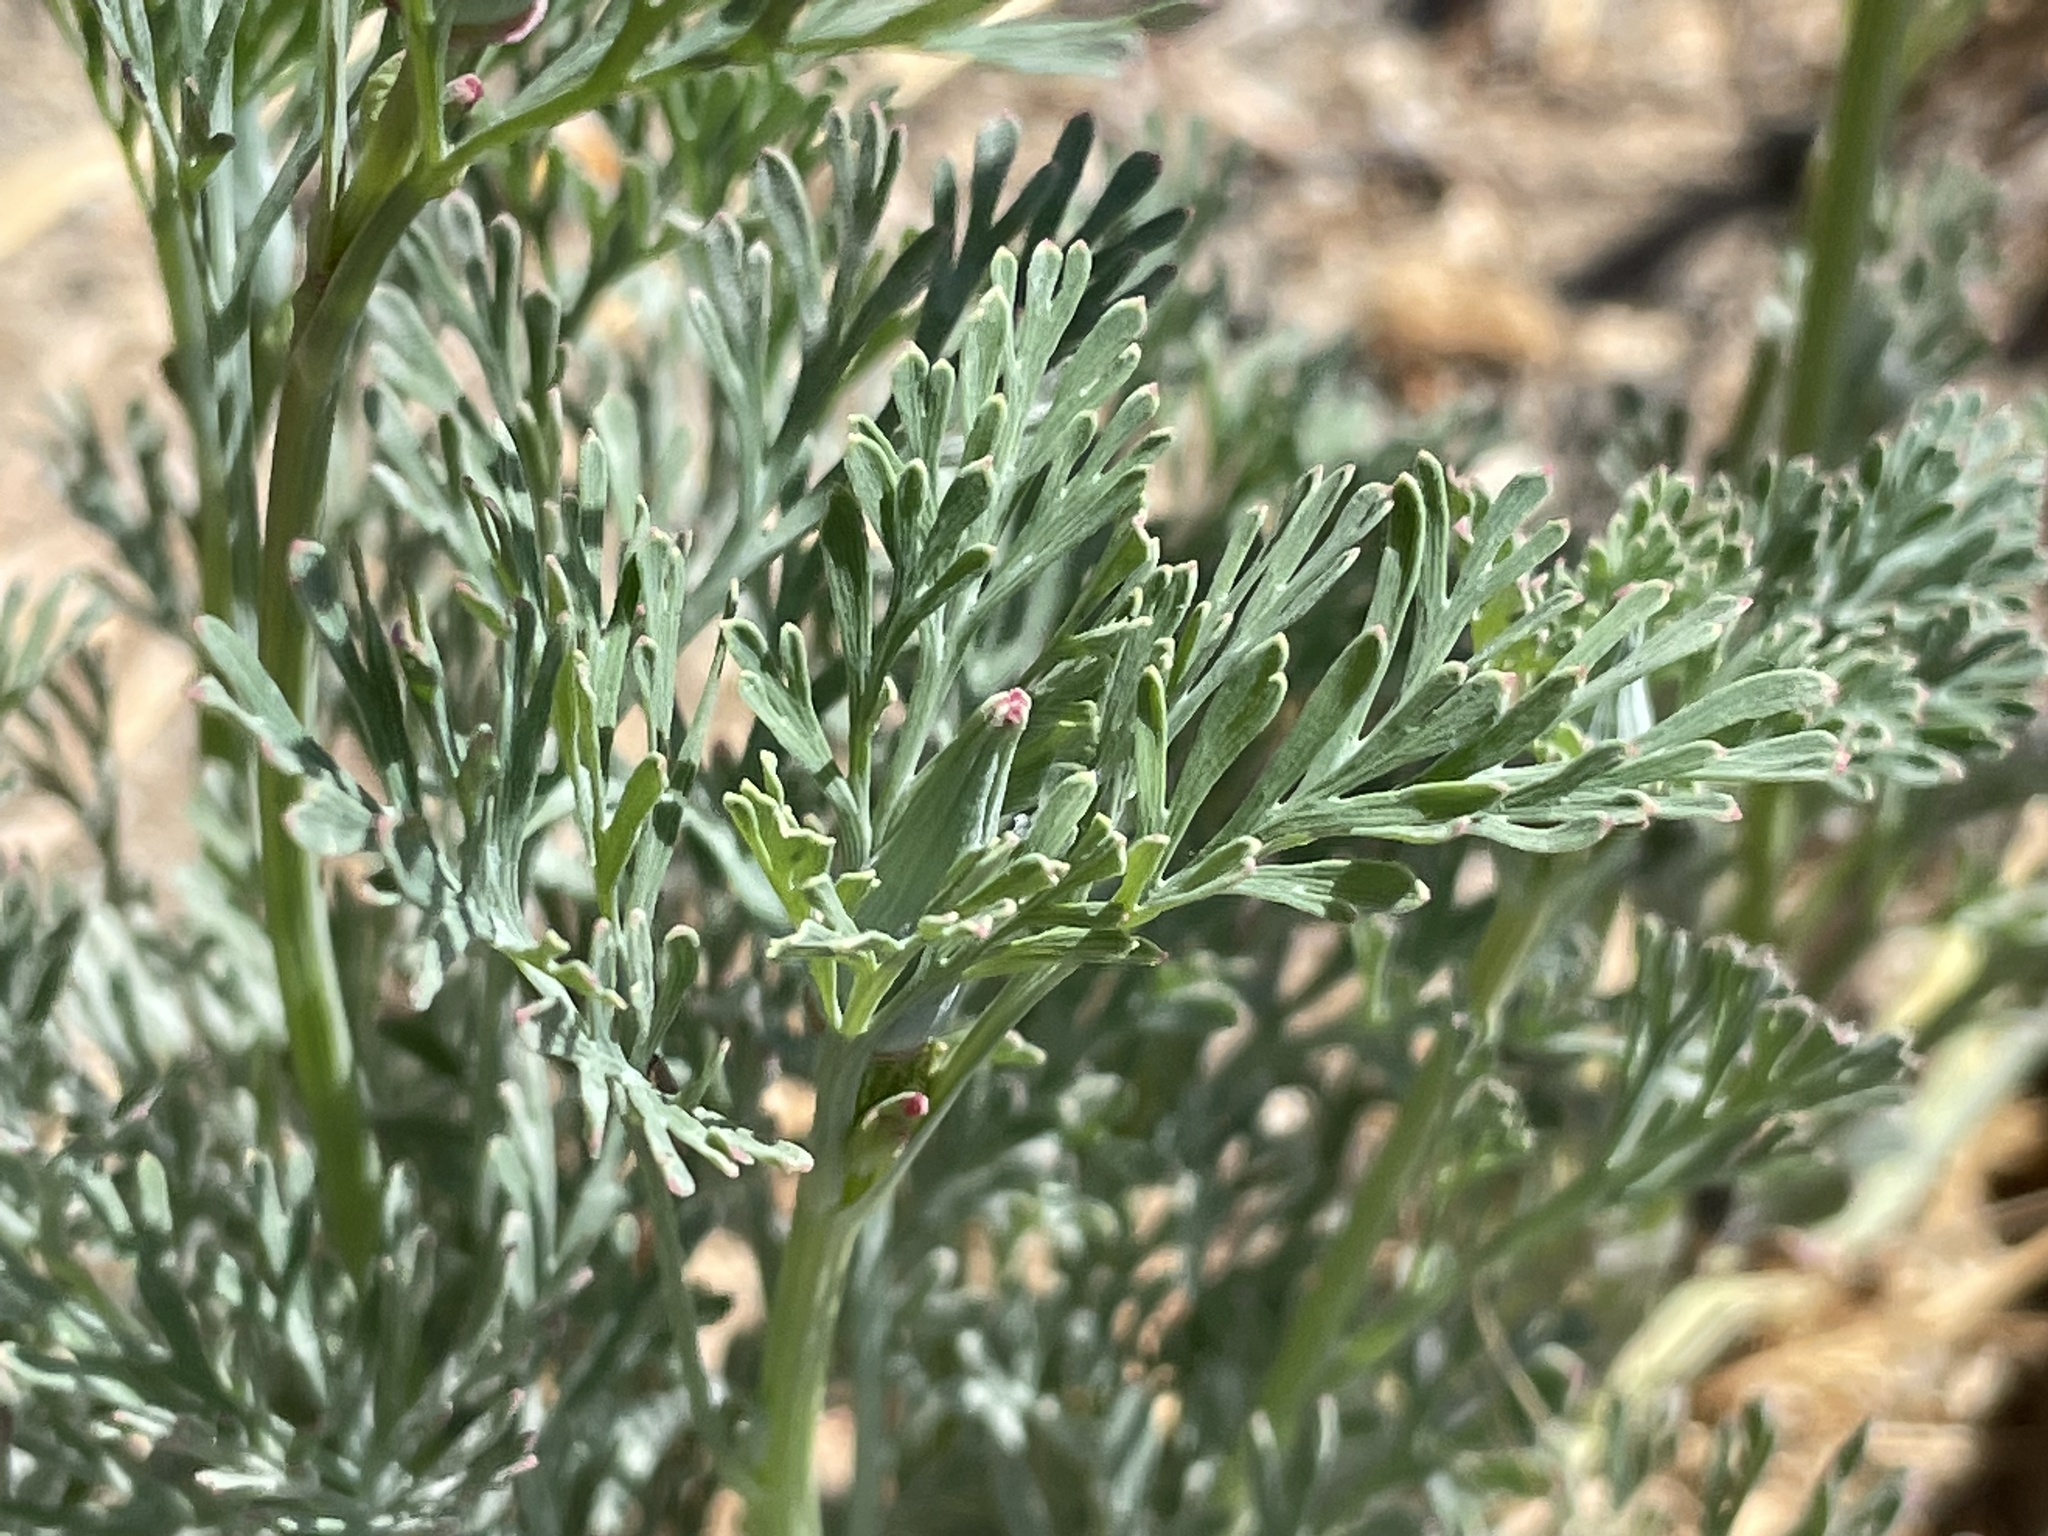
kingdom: Plantae
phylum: Tracheophyta
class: Magnoliopsida
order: Ranunculales
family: Papaveraceae
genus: Eschscholzia
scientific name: Eschscholzia californica
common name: California poppy
